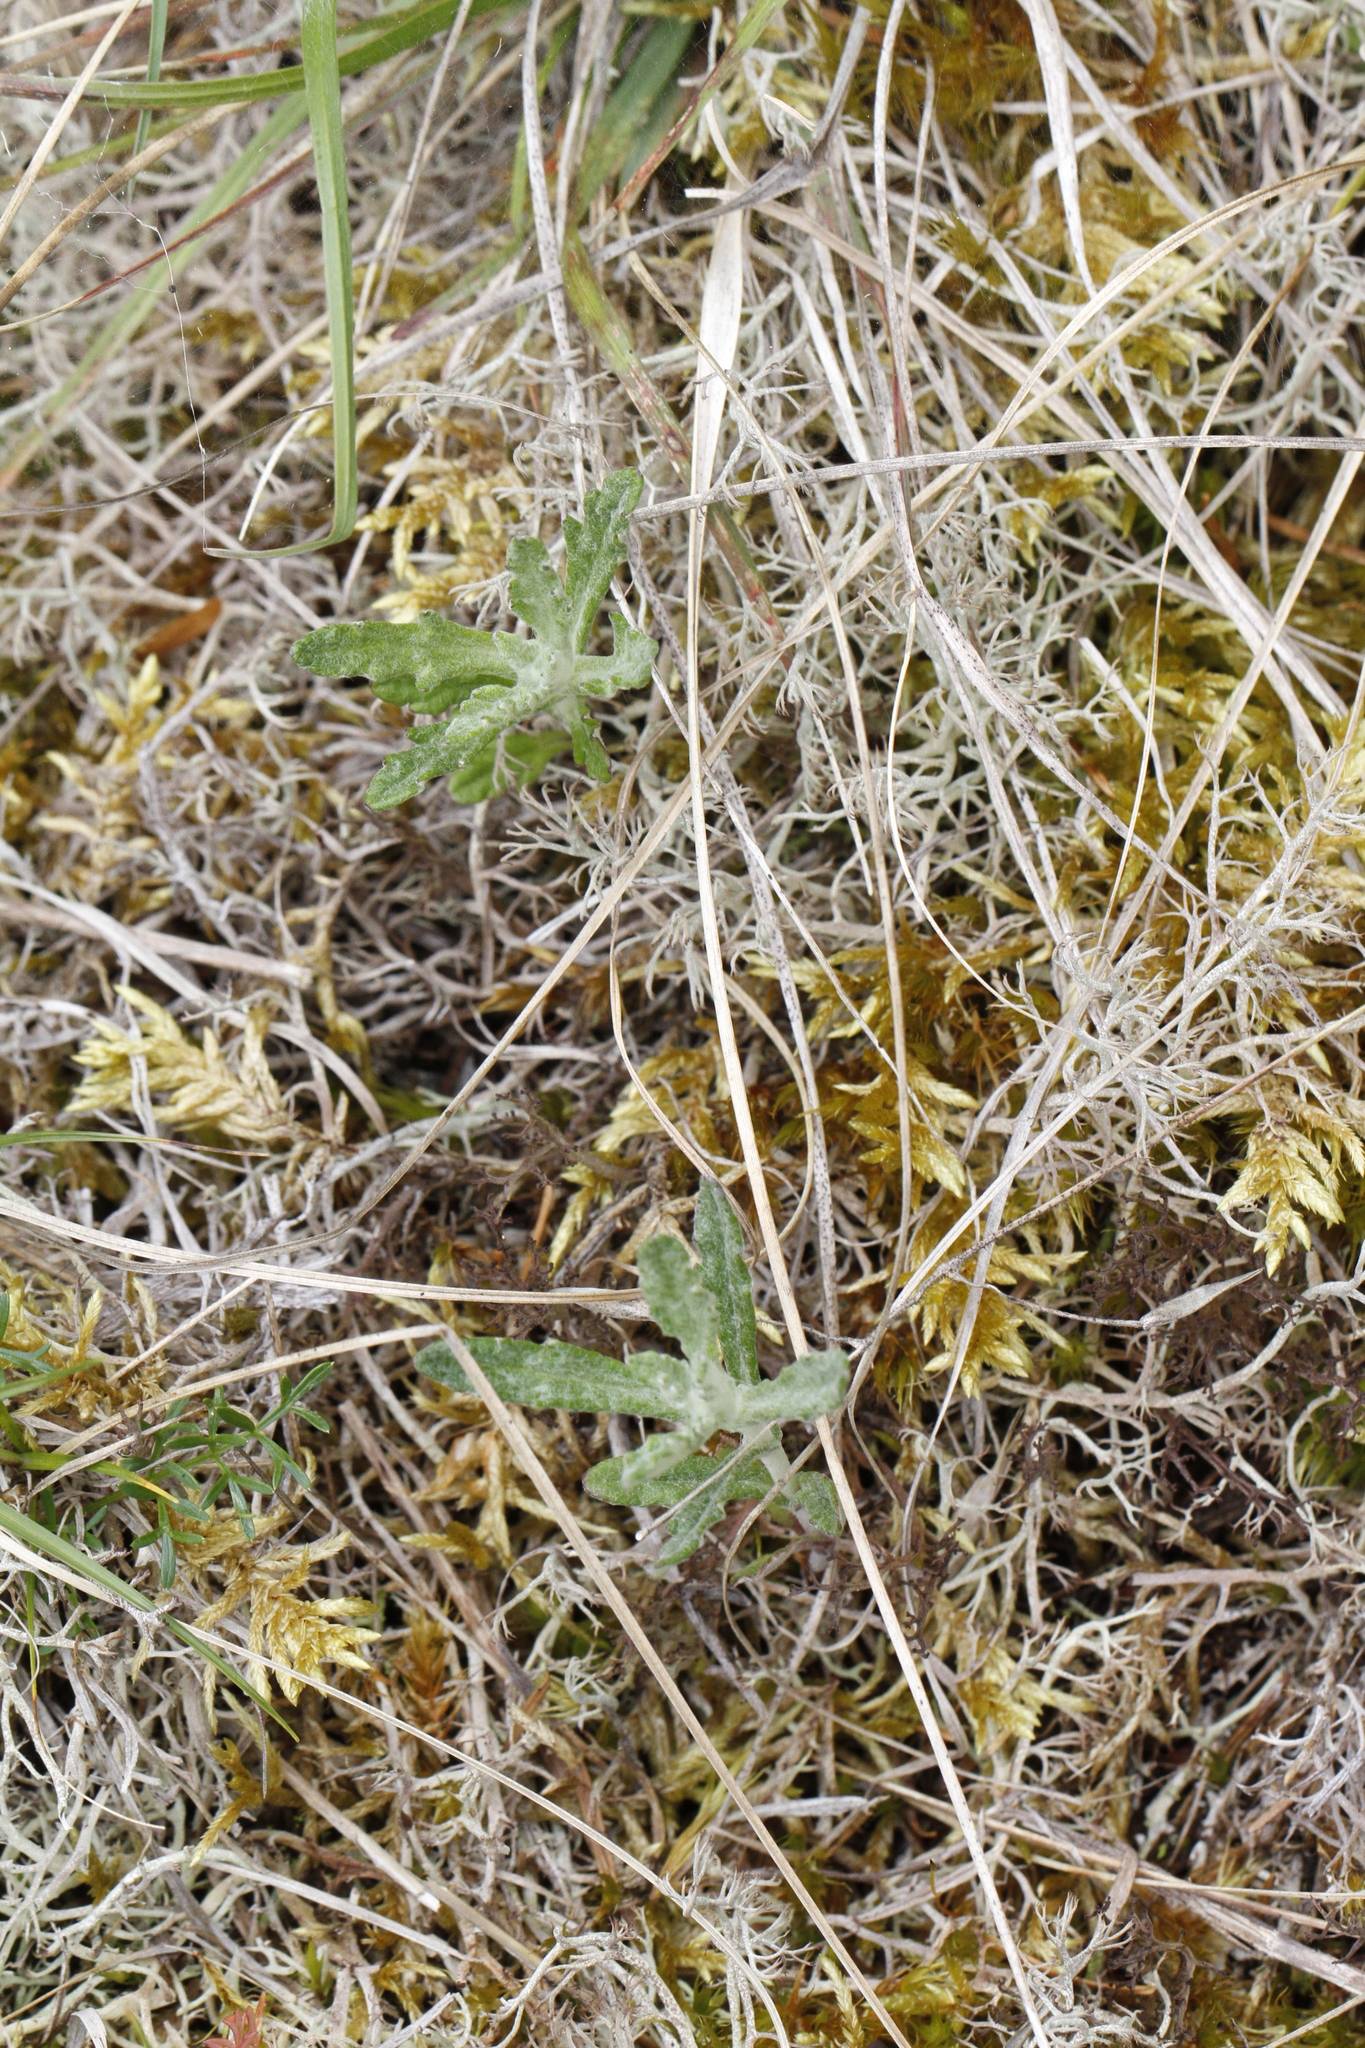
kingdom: Plantae
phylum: Tracheophyta
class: Magnoliopsida
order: Asterales
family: Asteraceae
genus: Eriophyllum
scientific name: Eriophyllum lanatum
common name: Common woolly-sunflower
